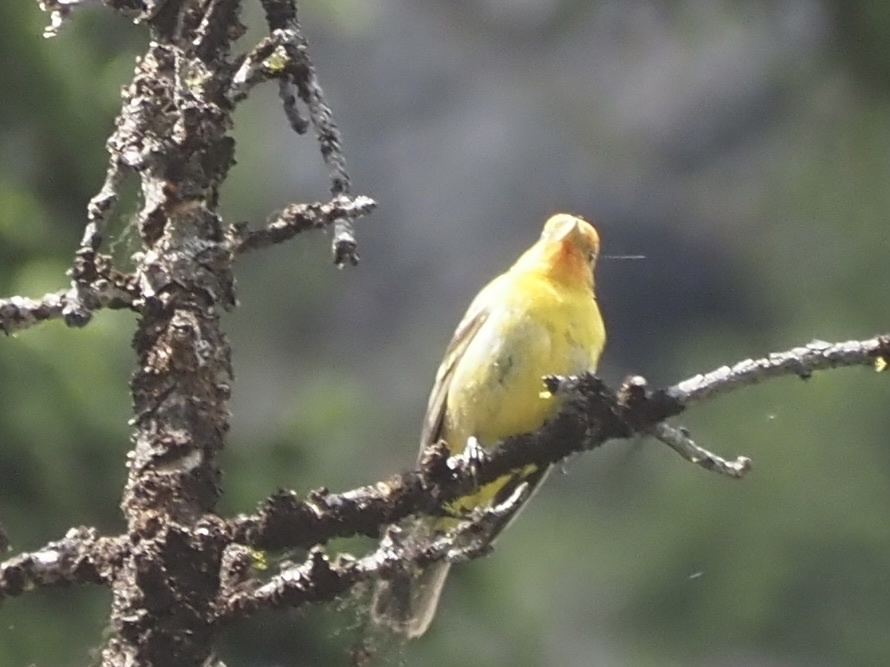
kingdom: Animalia
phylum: Chordata
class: Aves
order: Passeriformes
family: Cardinalidae
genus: Piranga
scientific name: Piranga ludoviciana
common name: Western tanager
